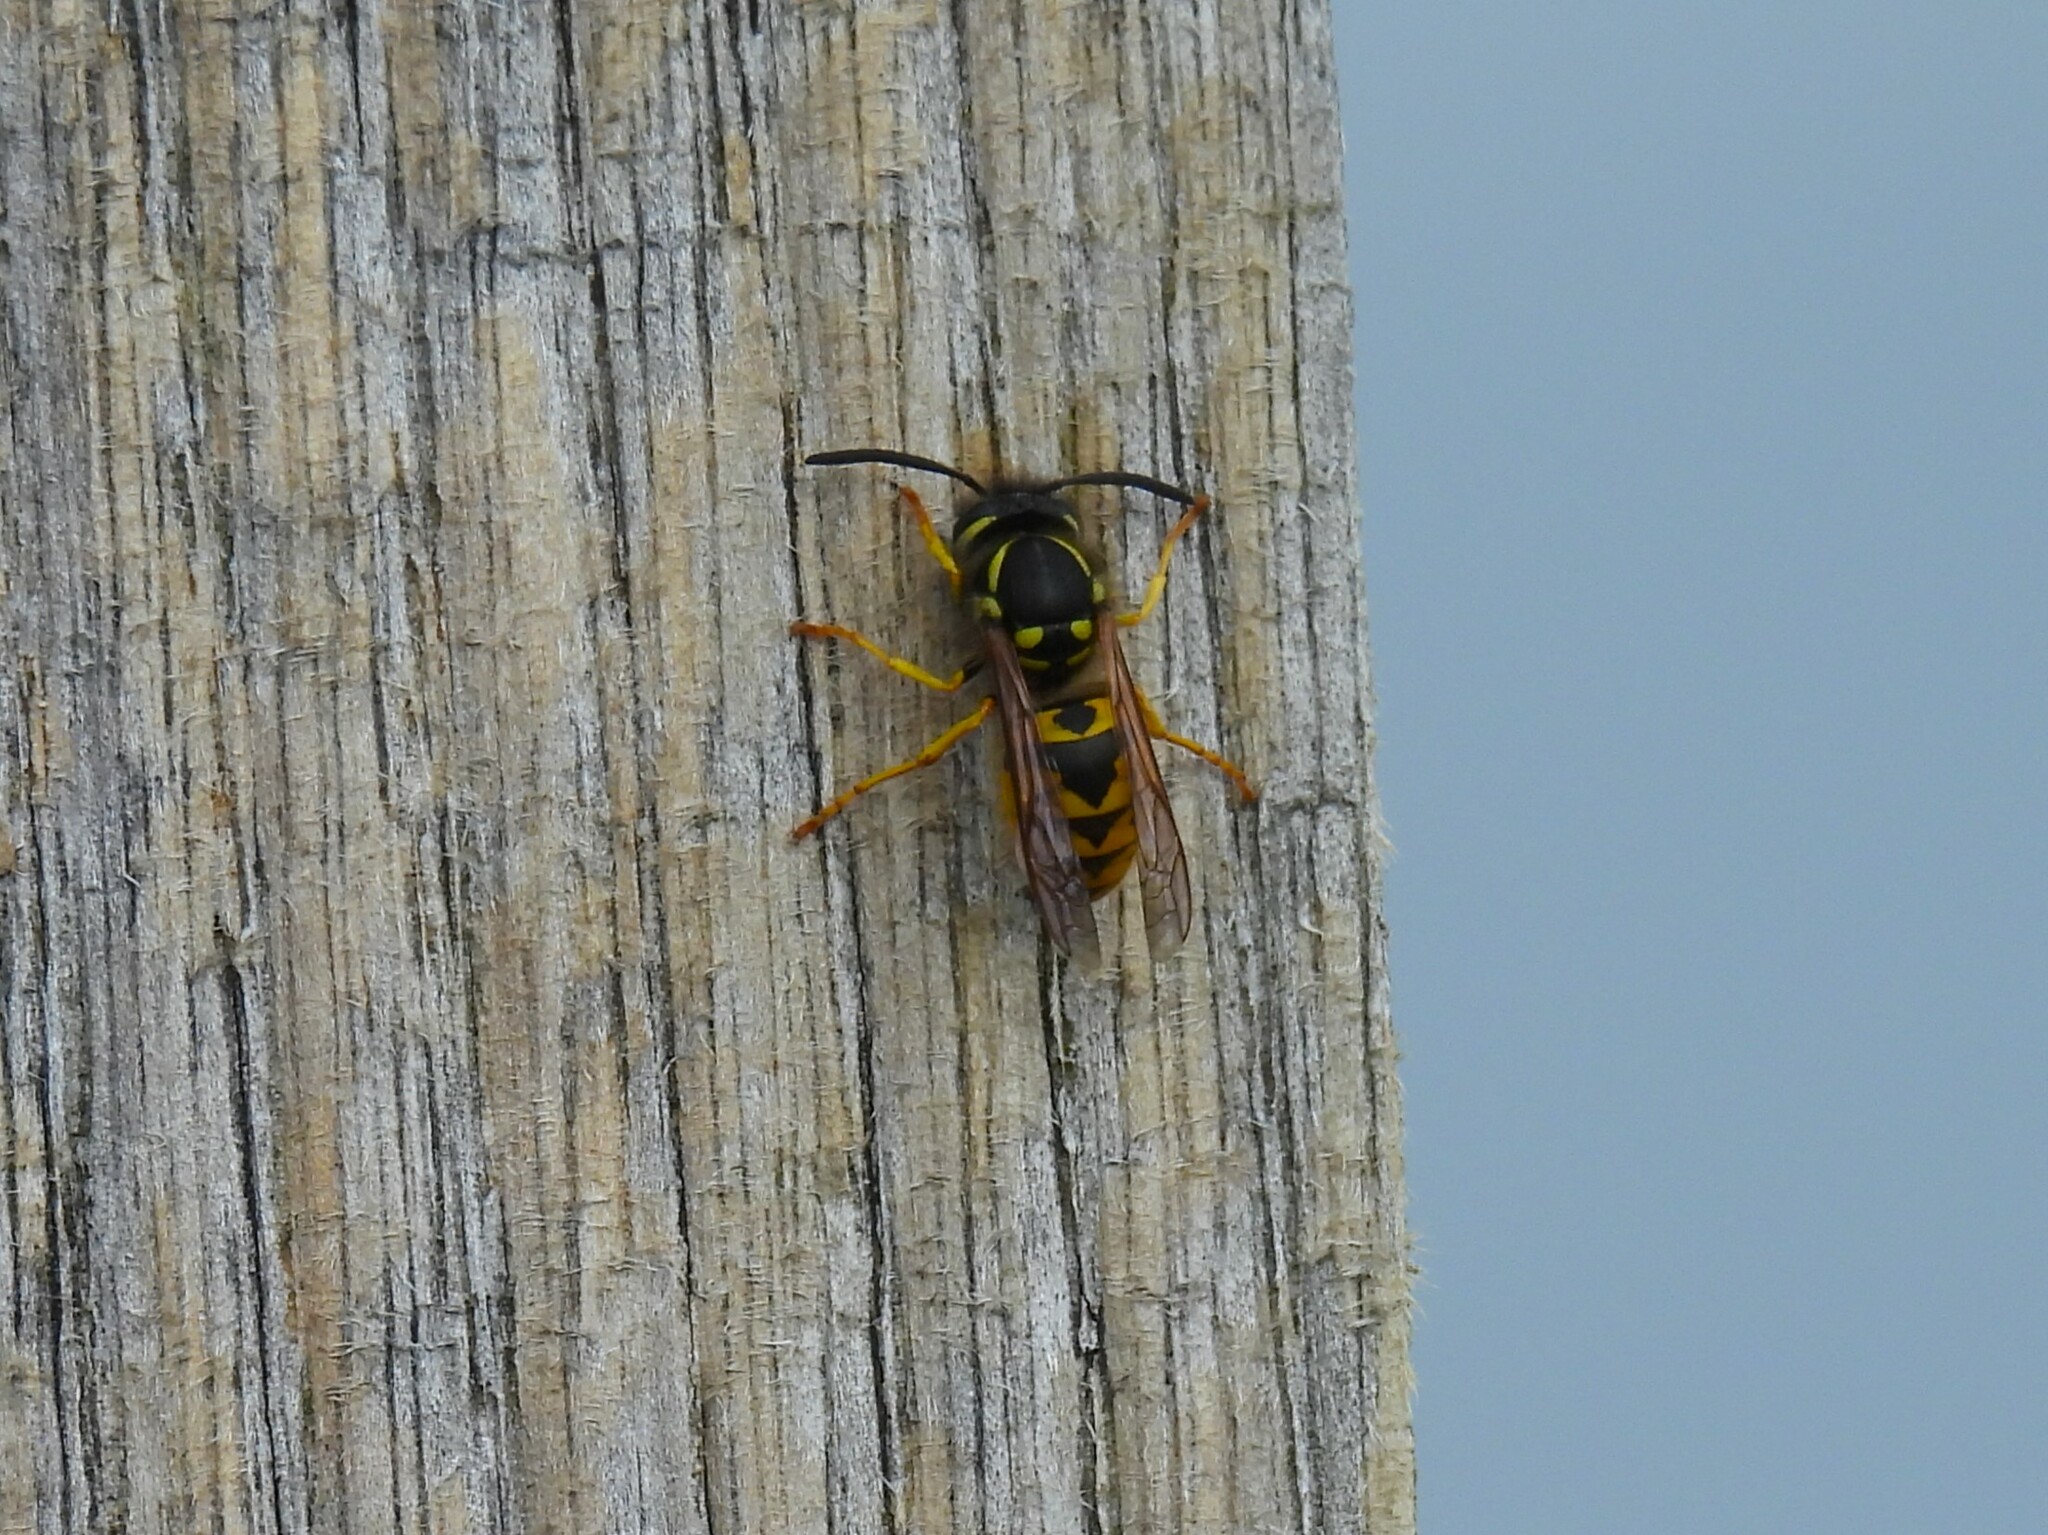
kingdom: Animalia
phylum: Arthropoda
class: Insecta
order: Hymenoptera
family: Vespidae
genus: Vespula
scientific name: Vespula germanica
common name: German wasp
